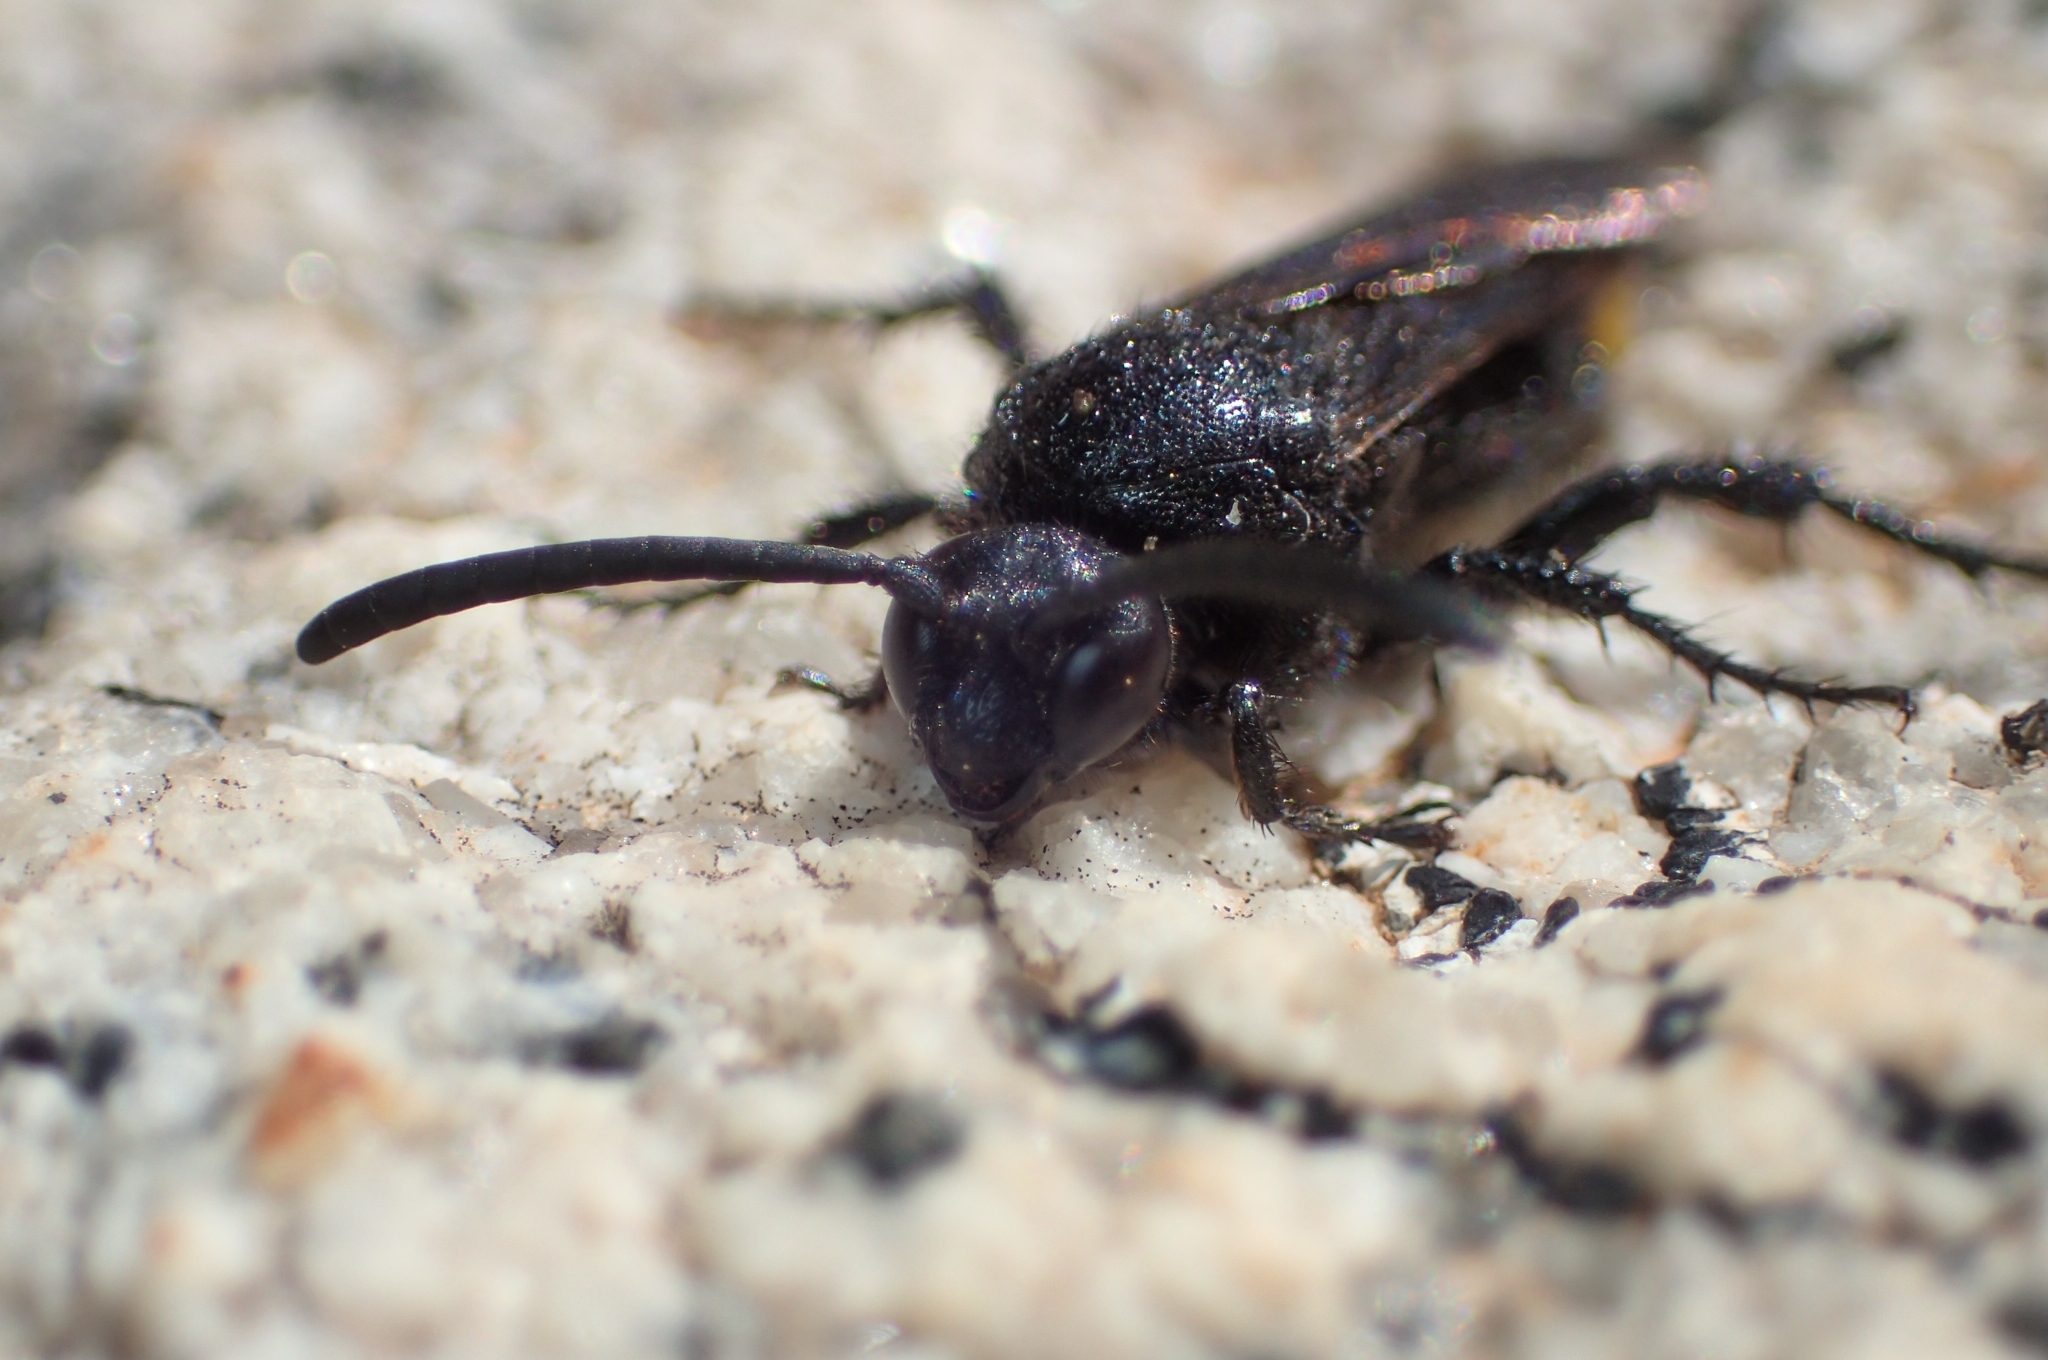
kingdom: Animalia
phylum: Arthropoda
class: Insecta
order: Hymenoptera
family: Scoliidae
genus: Scolia
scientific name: Scolia hirta
